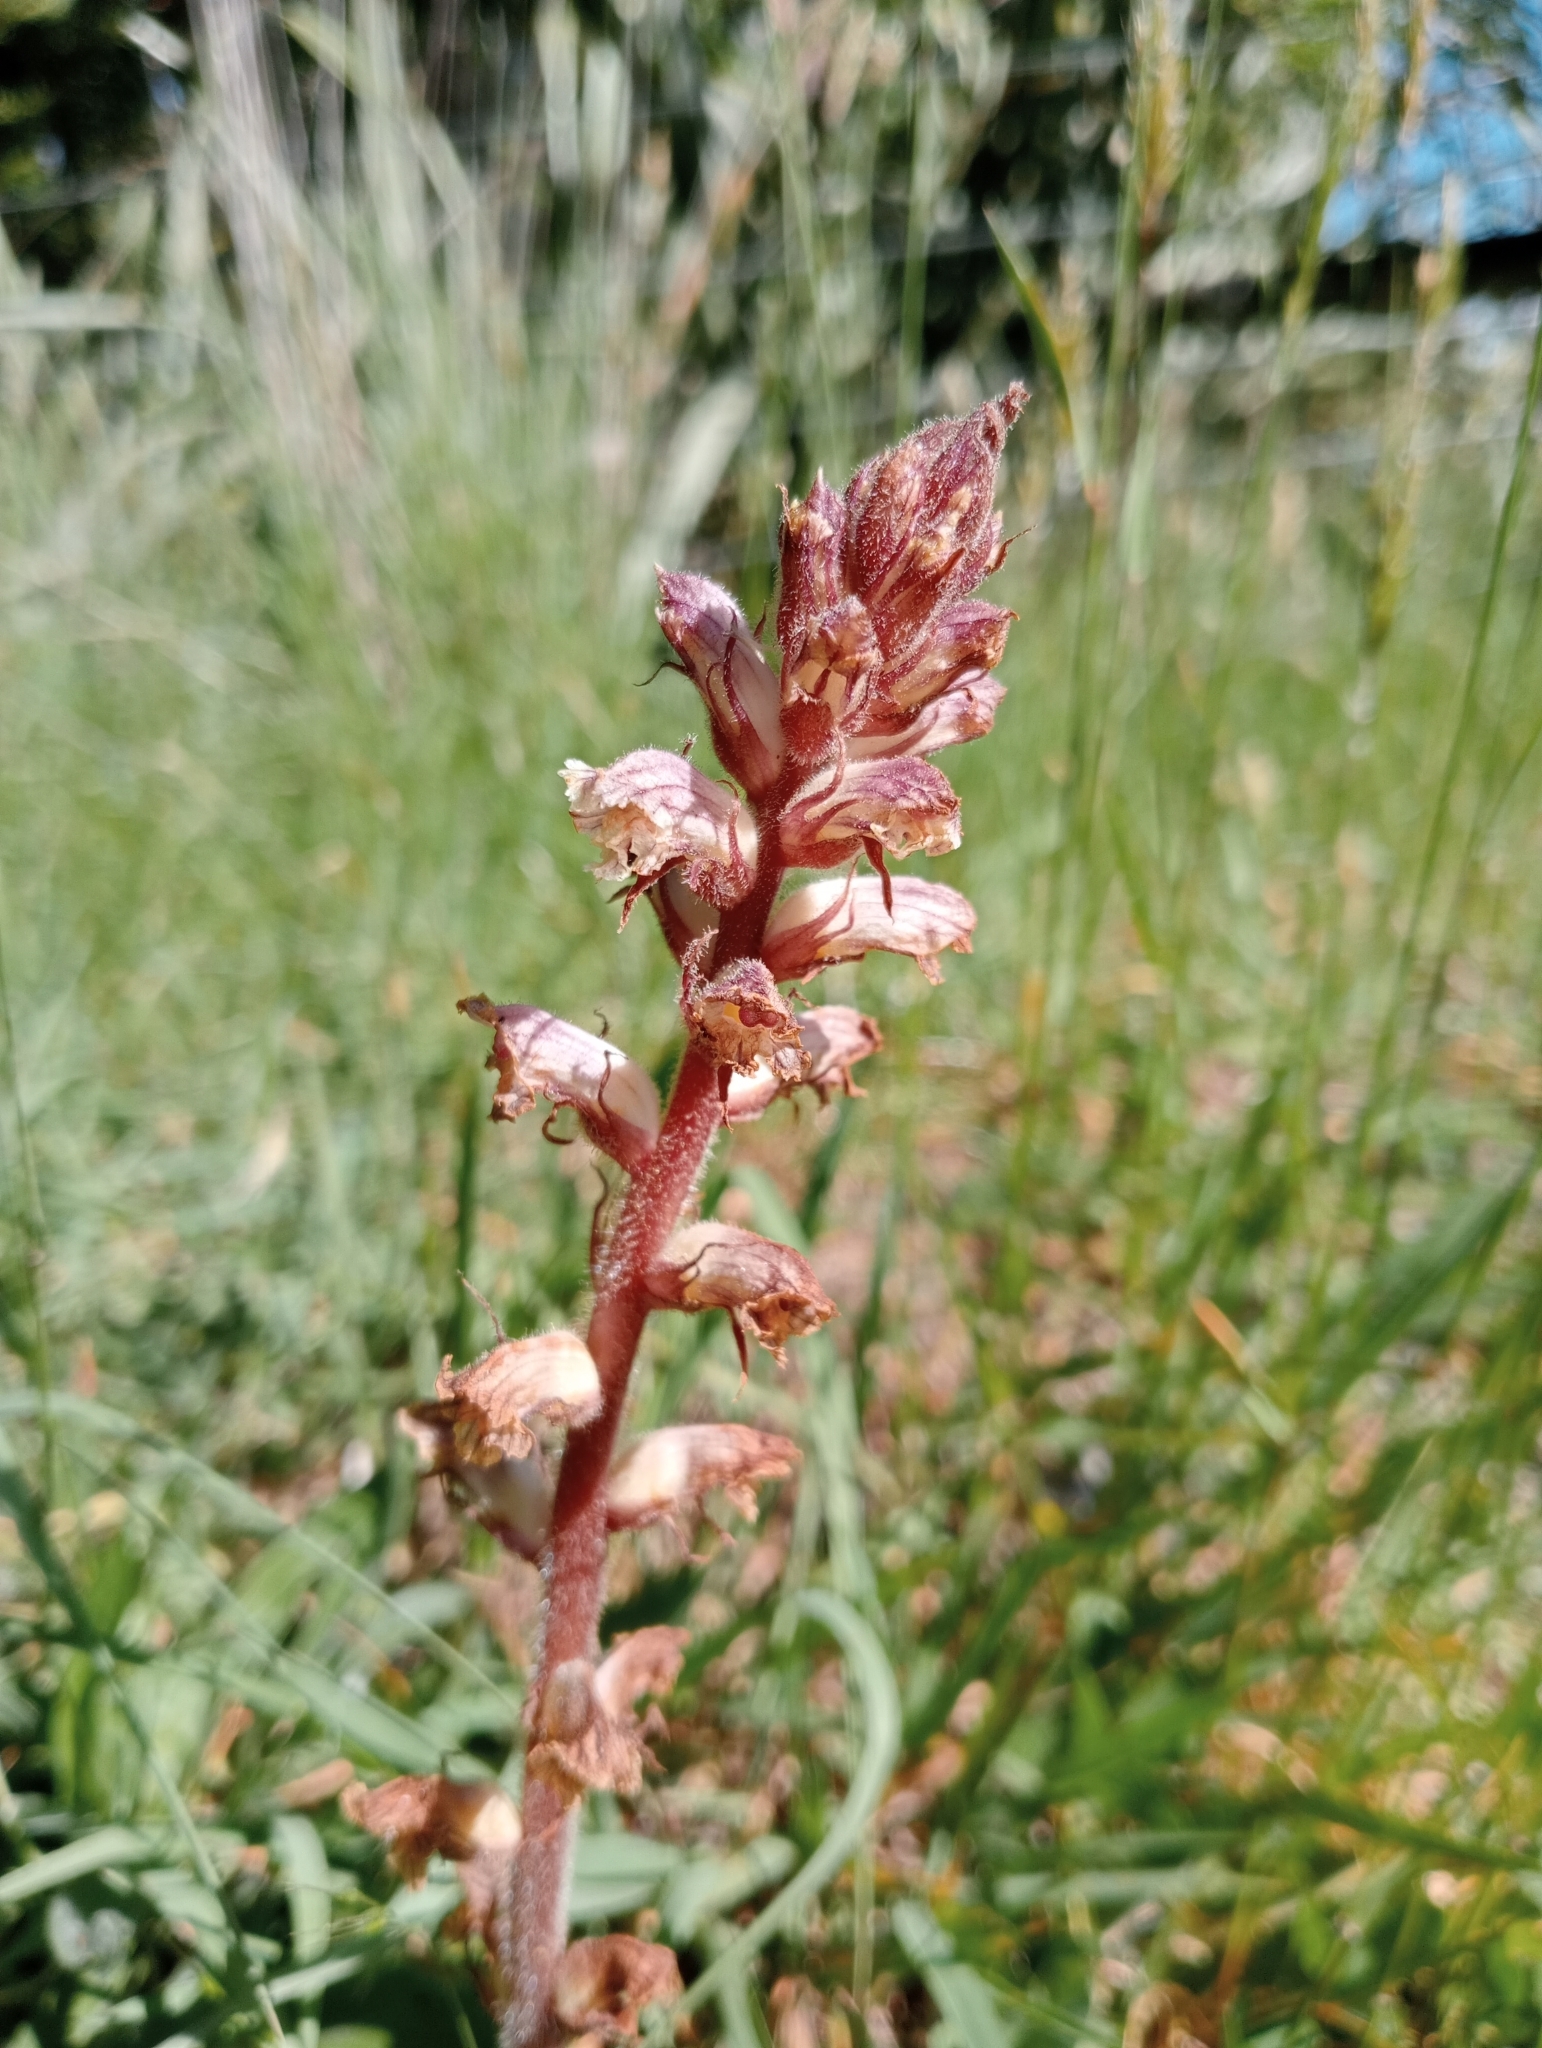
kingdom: Plantae
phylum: Tracheophyta
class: Magnoliopsida
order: Lamiales
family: Orobanchaceae
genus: Orobanche
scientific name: Orobanche minor
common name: Common broomrape
